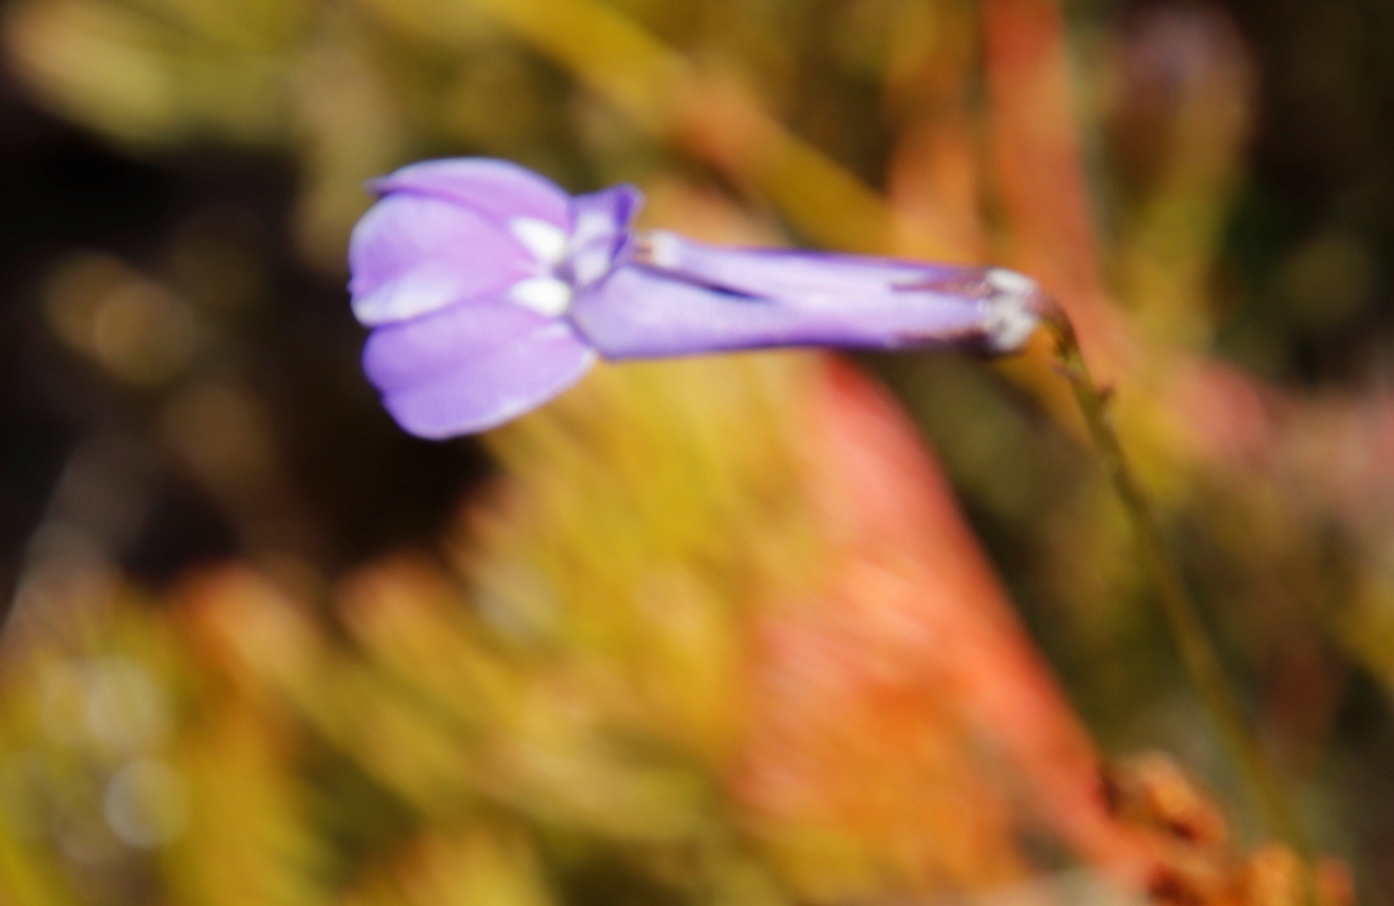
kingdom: Plantae
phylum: Tracheophyta
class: Magnoliopsida
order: Asterales
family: Campanulaceae
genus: Lobelia
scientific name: Lobelia coronopifolia
